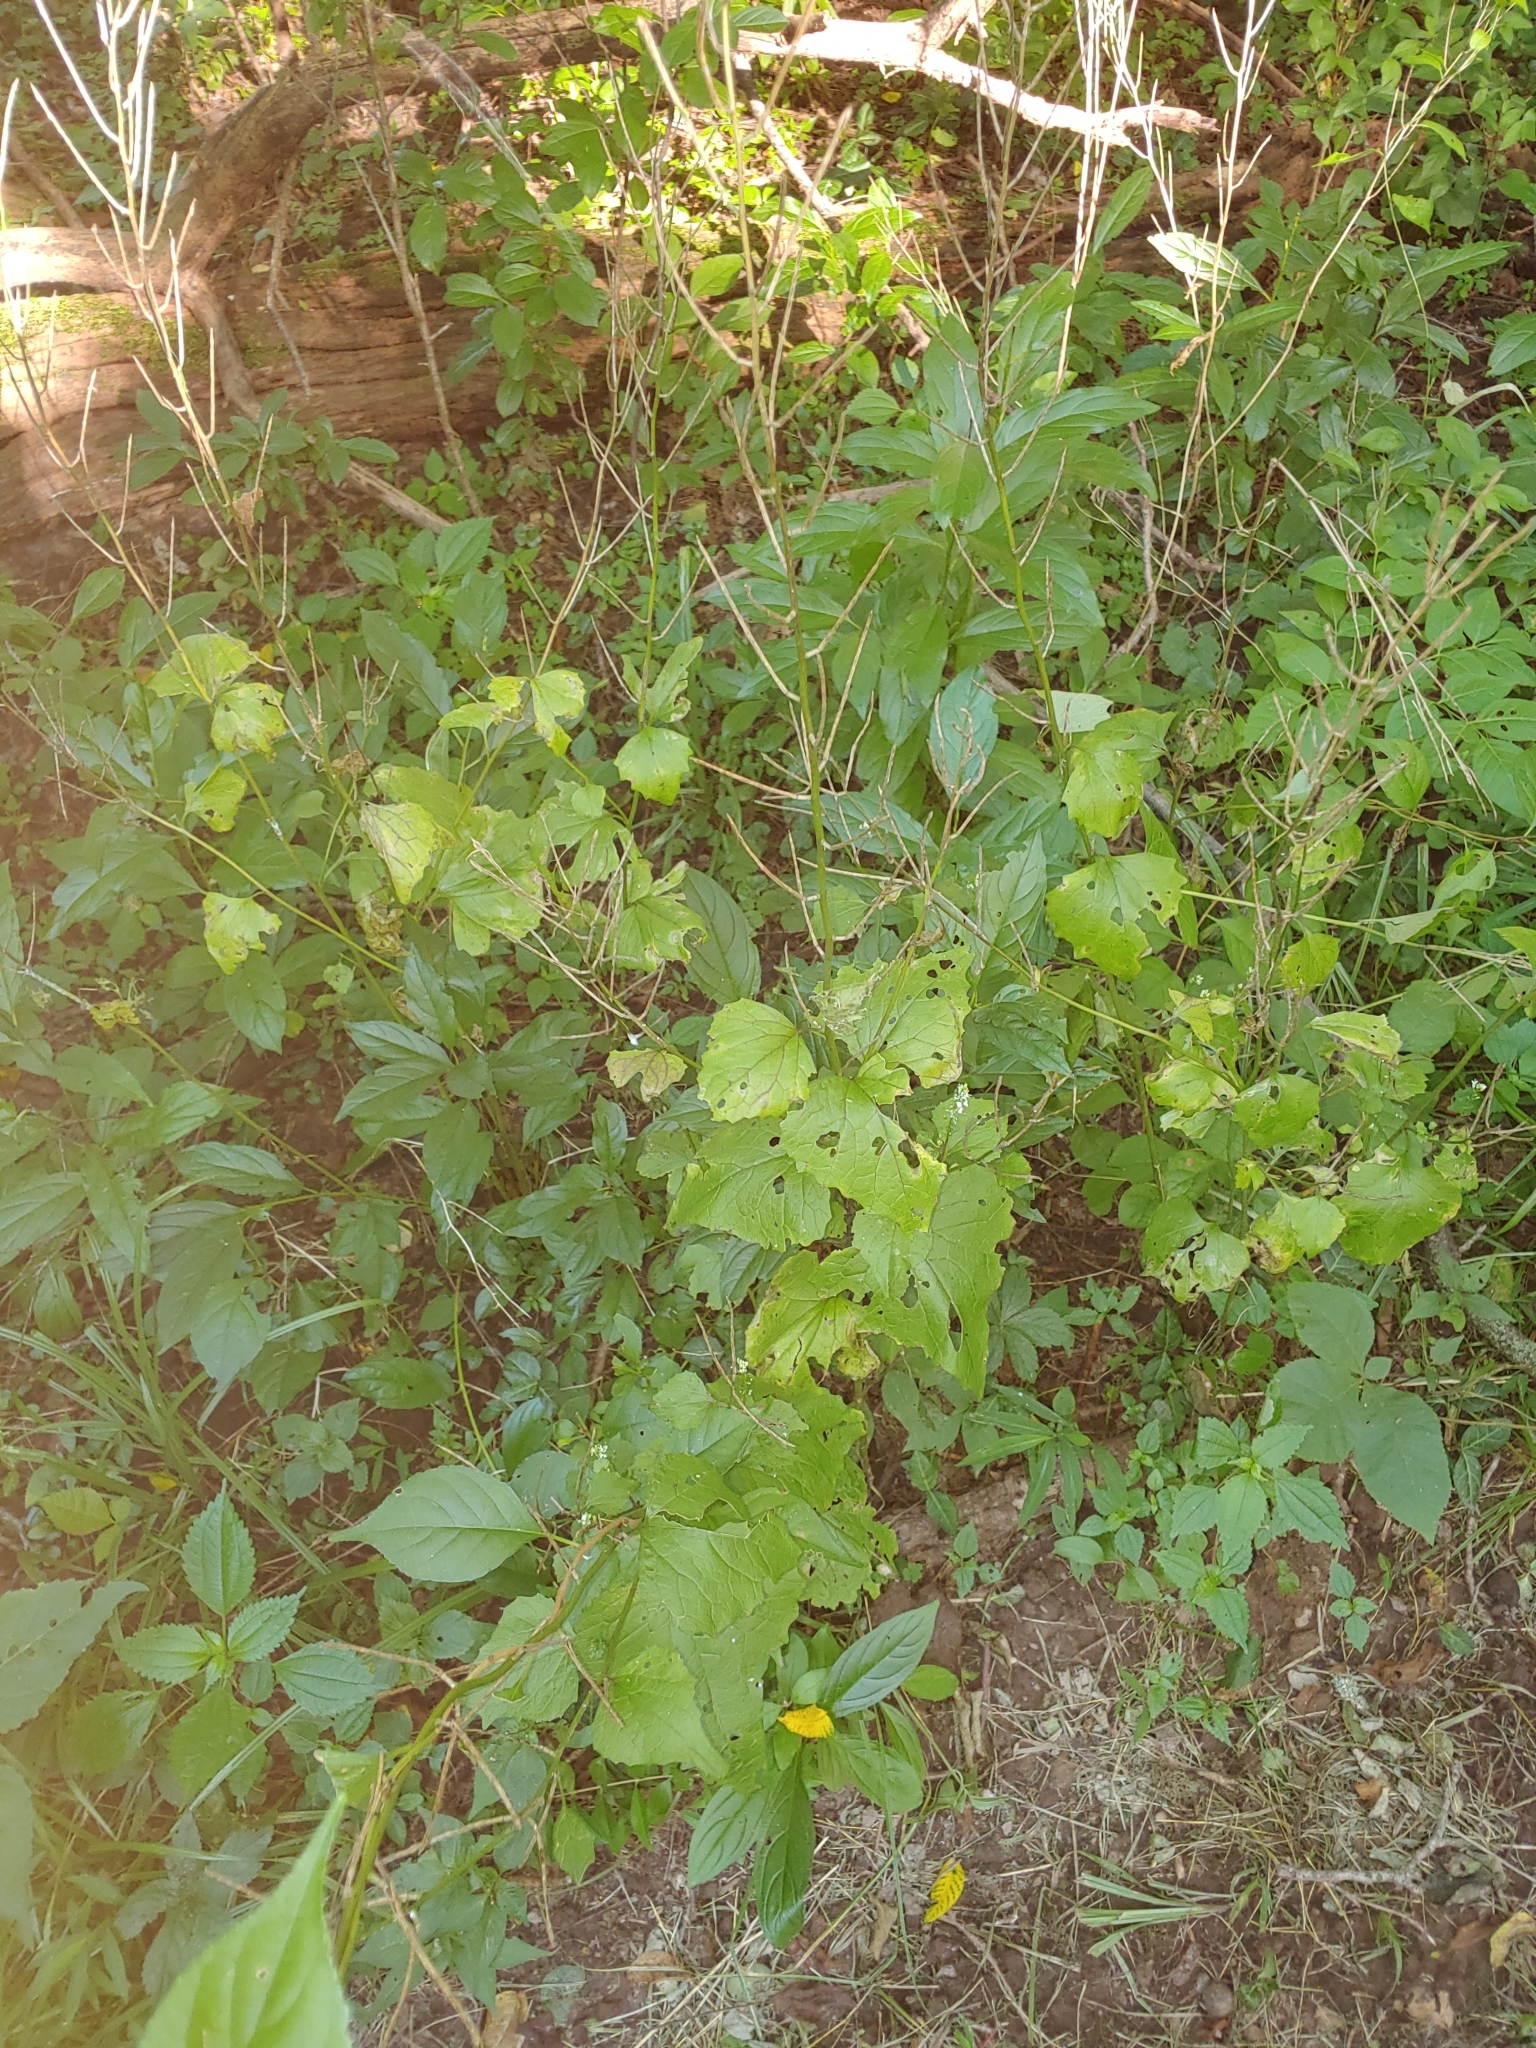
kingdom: Plantae
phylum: Tracheophyta
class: Magnoliopsida
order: Brassicales
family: Brassicaceae
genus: Alliaria
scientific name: Alliaria petiolata
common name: Garlic mustard
